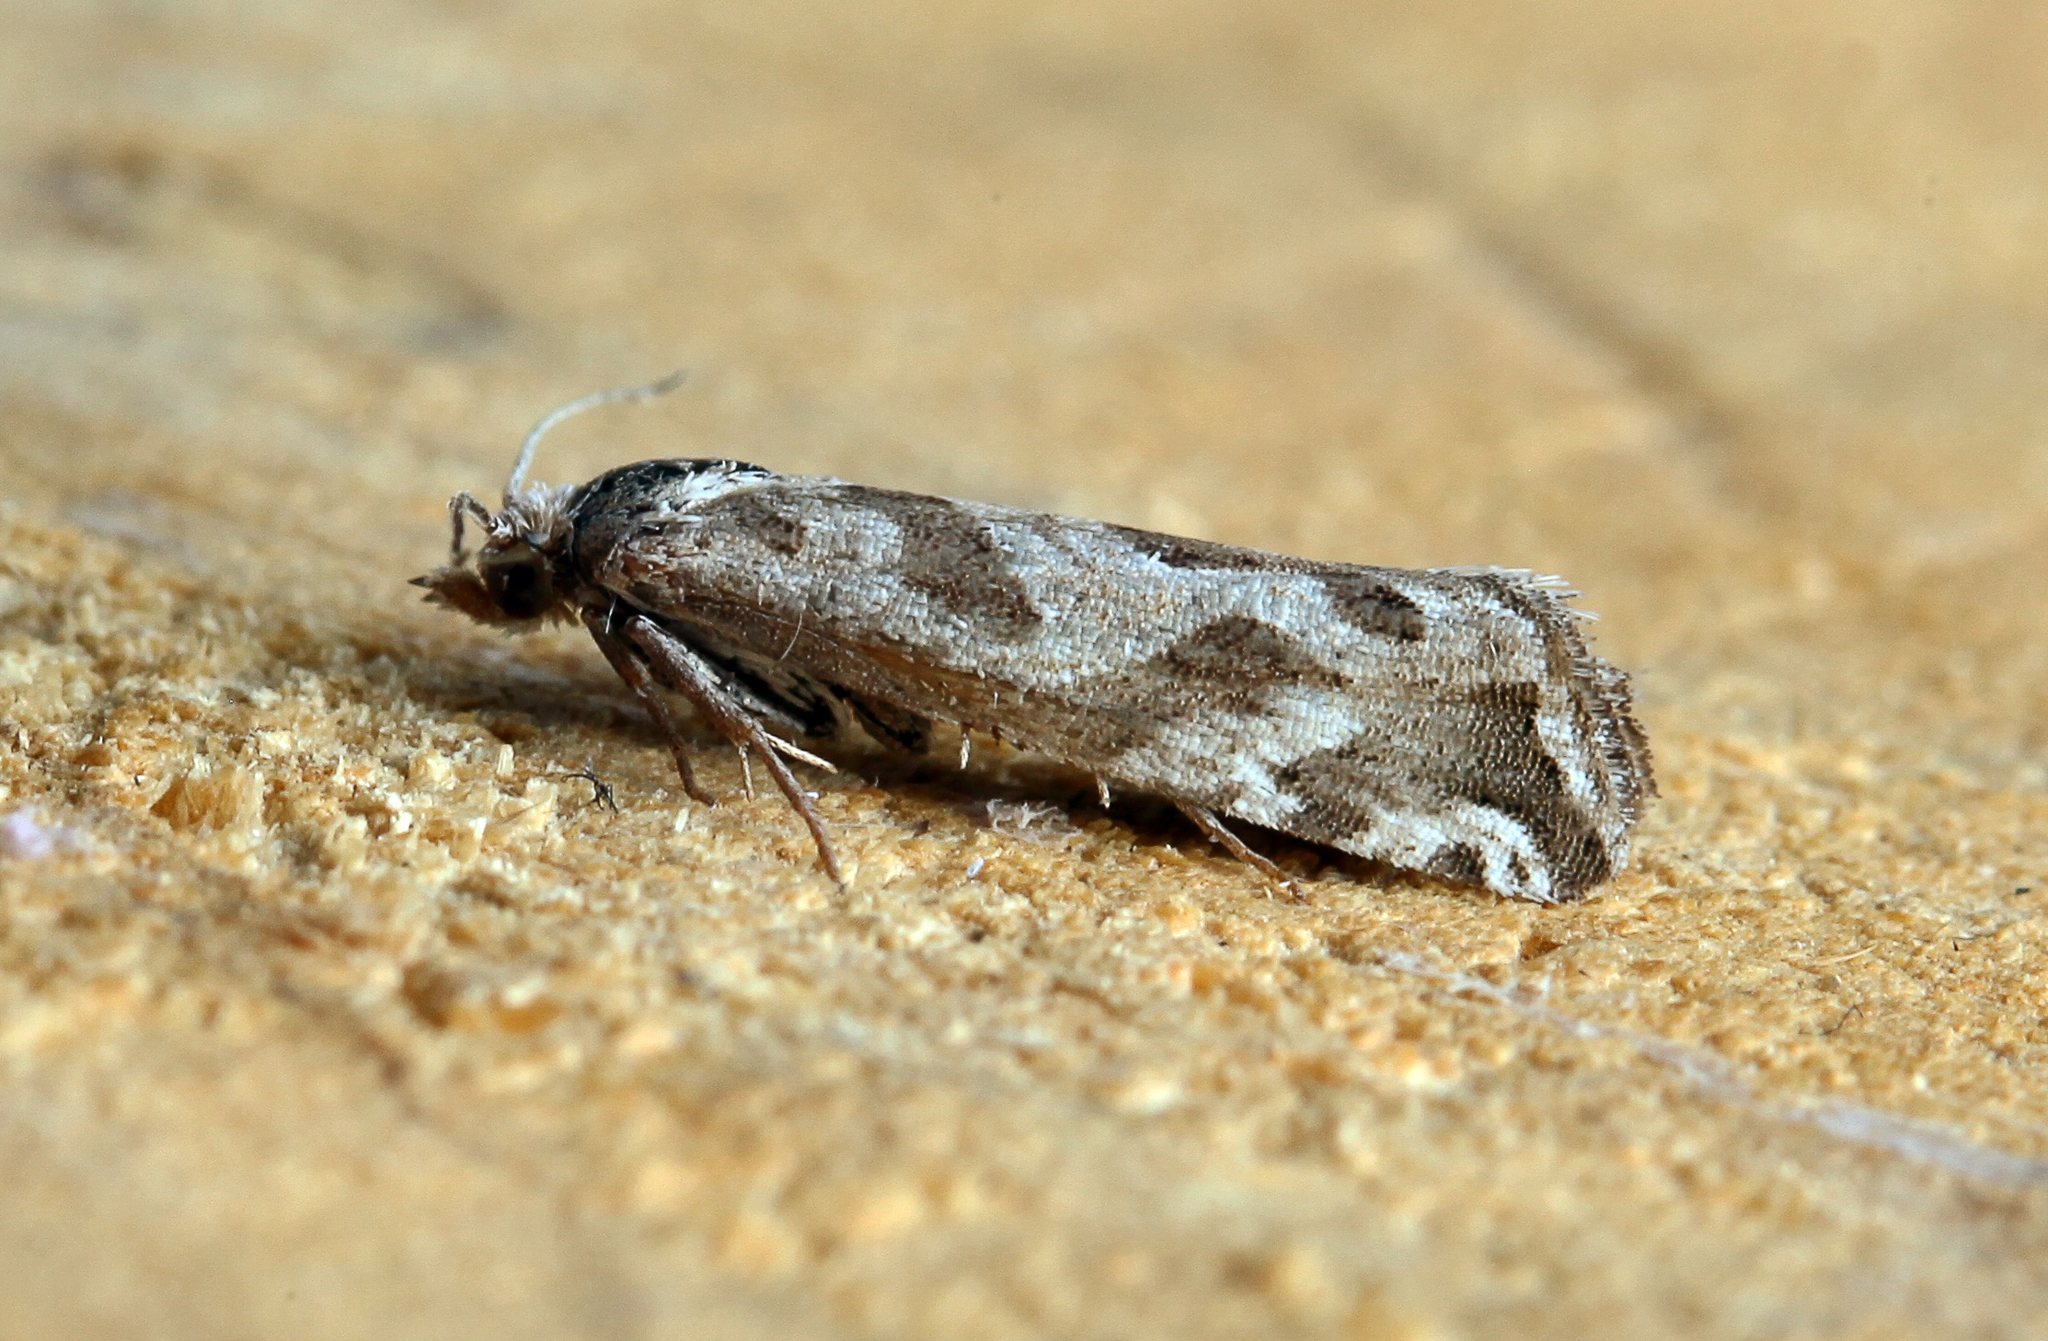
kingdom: Animalia
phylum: Arthropoda
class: Insecta
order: Lepidoptera
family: Tortricidae
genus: Pelochrista
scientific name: Pelochrista arabescana
